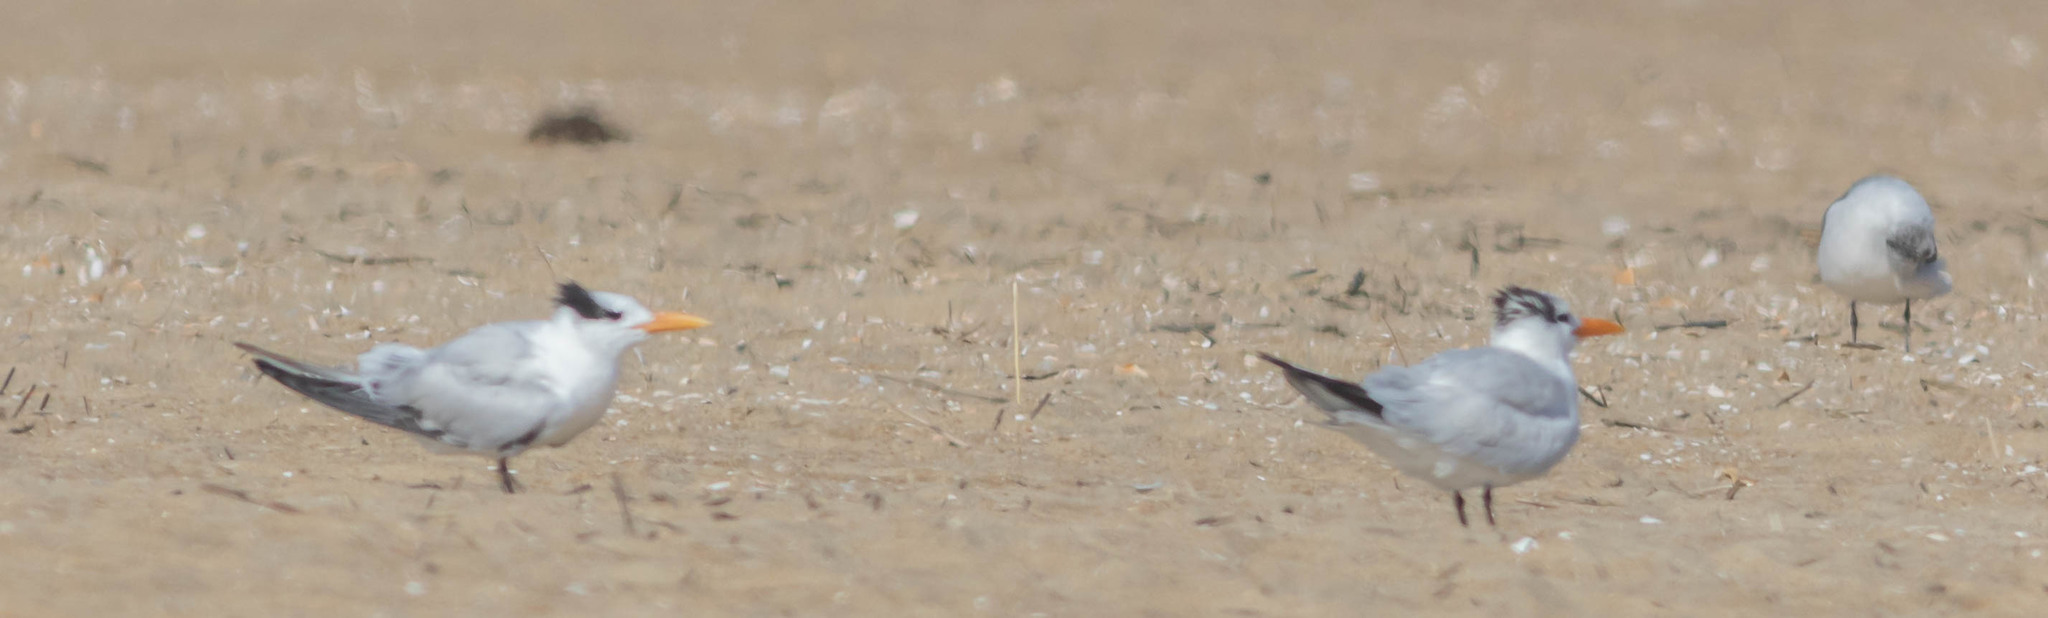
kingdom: Animalia
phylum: Chordata
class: Aves
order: Charadriiformes
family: Laridae
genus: Thalasseus
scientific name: Thalasseus maximus
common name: Royal tern
